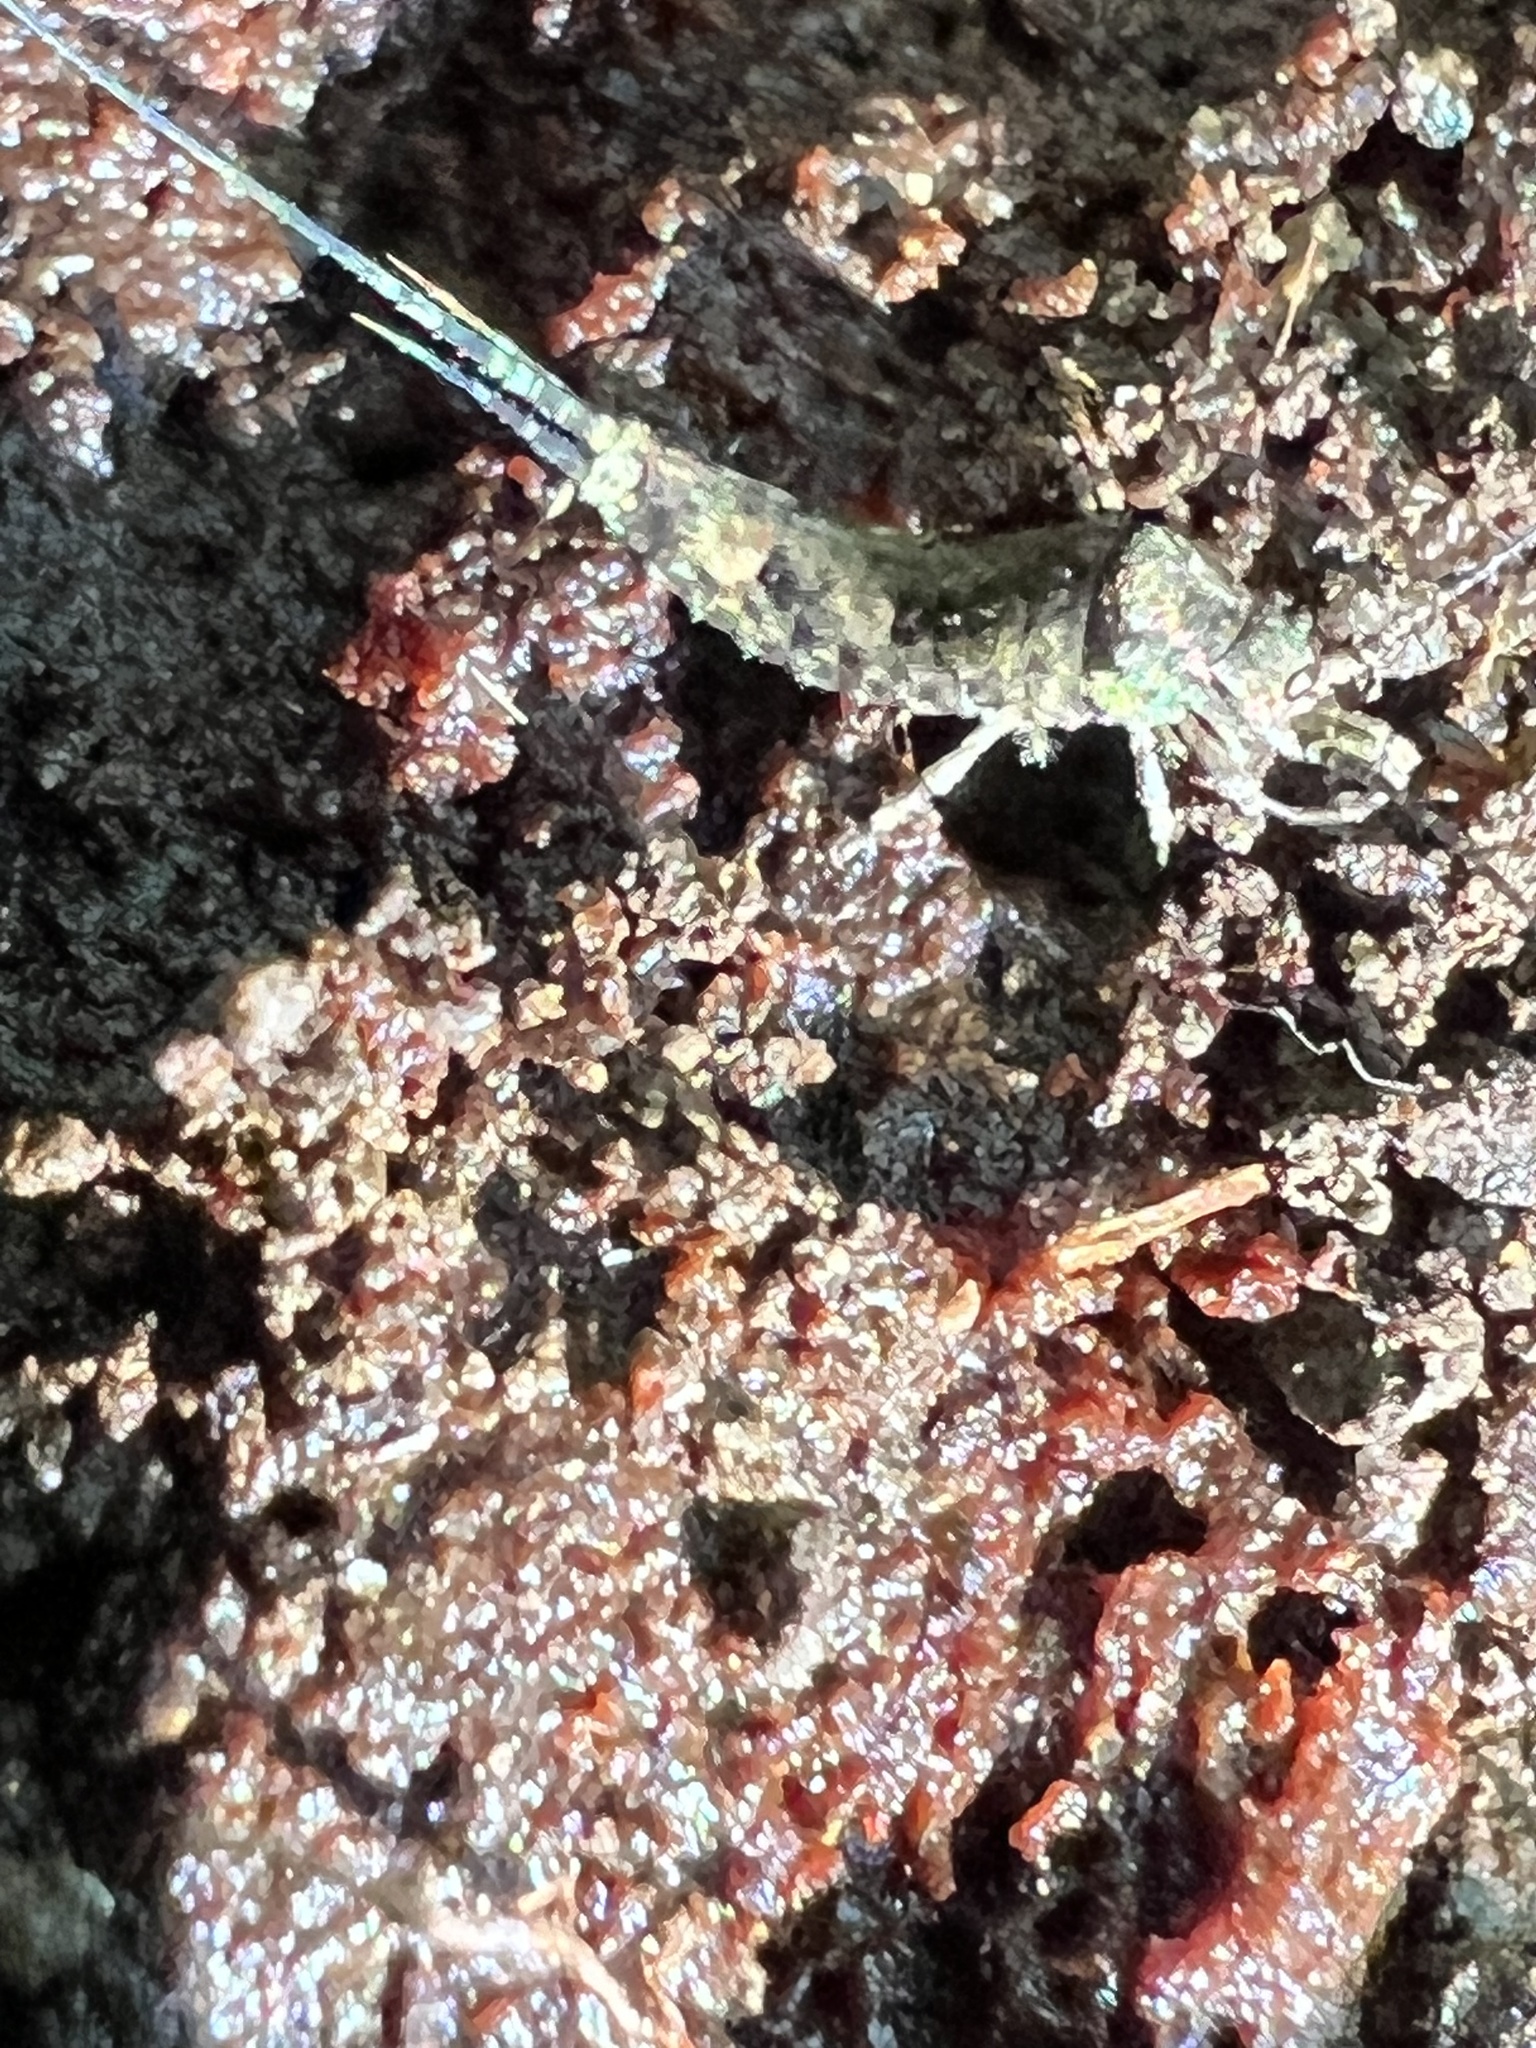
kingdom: Animalia
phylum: Arthropoda
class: Insecta
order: Archaeognatha
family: Machilidae
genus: Trigoniophthalmus
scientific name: Trigoniophthalmus alternatus
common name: Jumping bristletail
